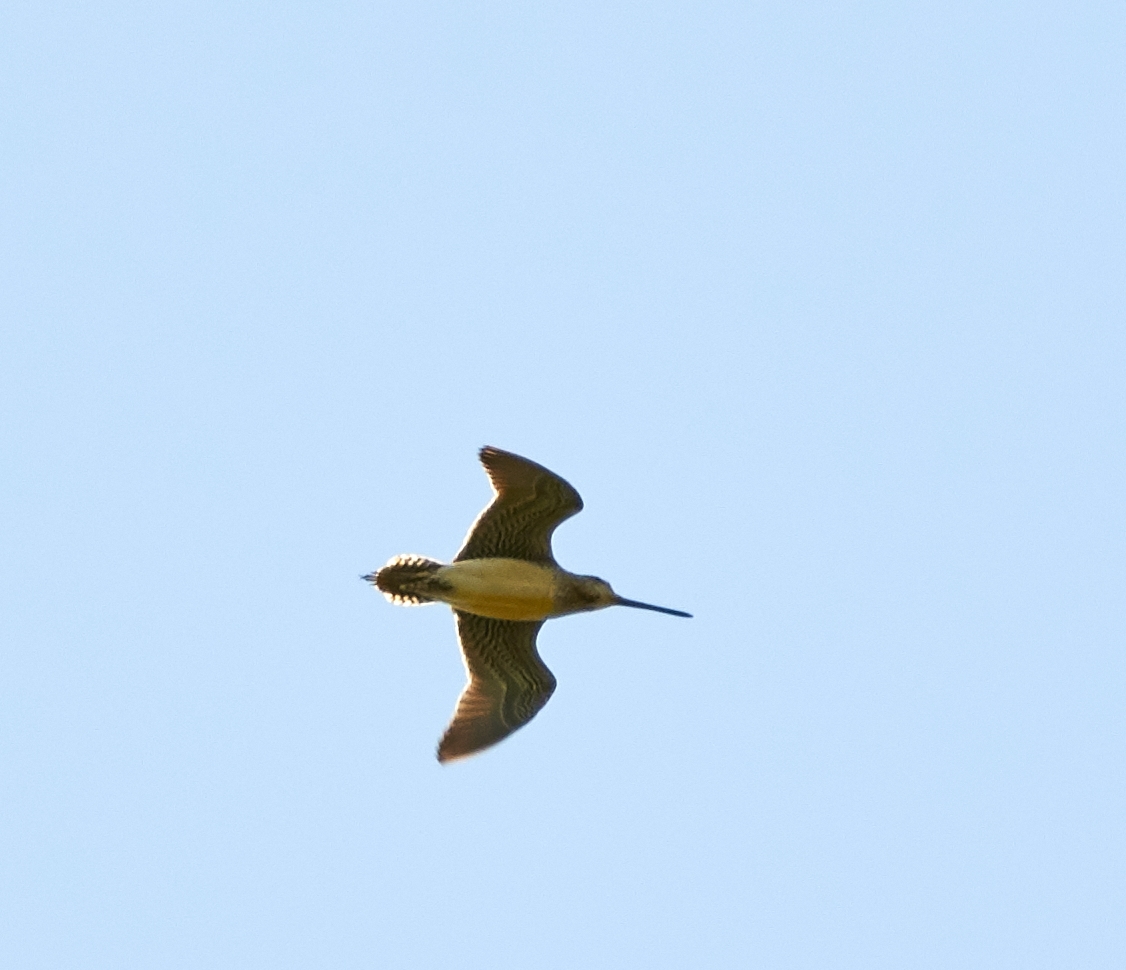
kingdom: Animalia
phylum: Chordata
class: Aves
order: Charadriiformes
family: Scolopacidae
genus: Gallinago
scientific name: Gallinago delicata
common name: Wilson's snipe
